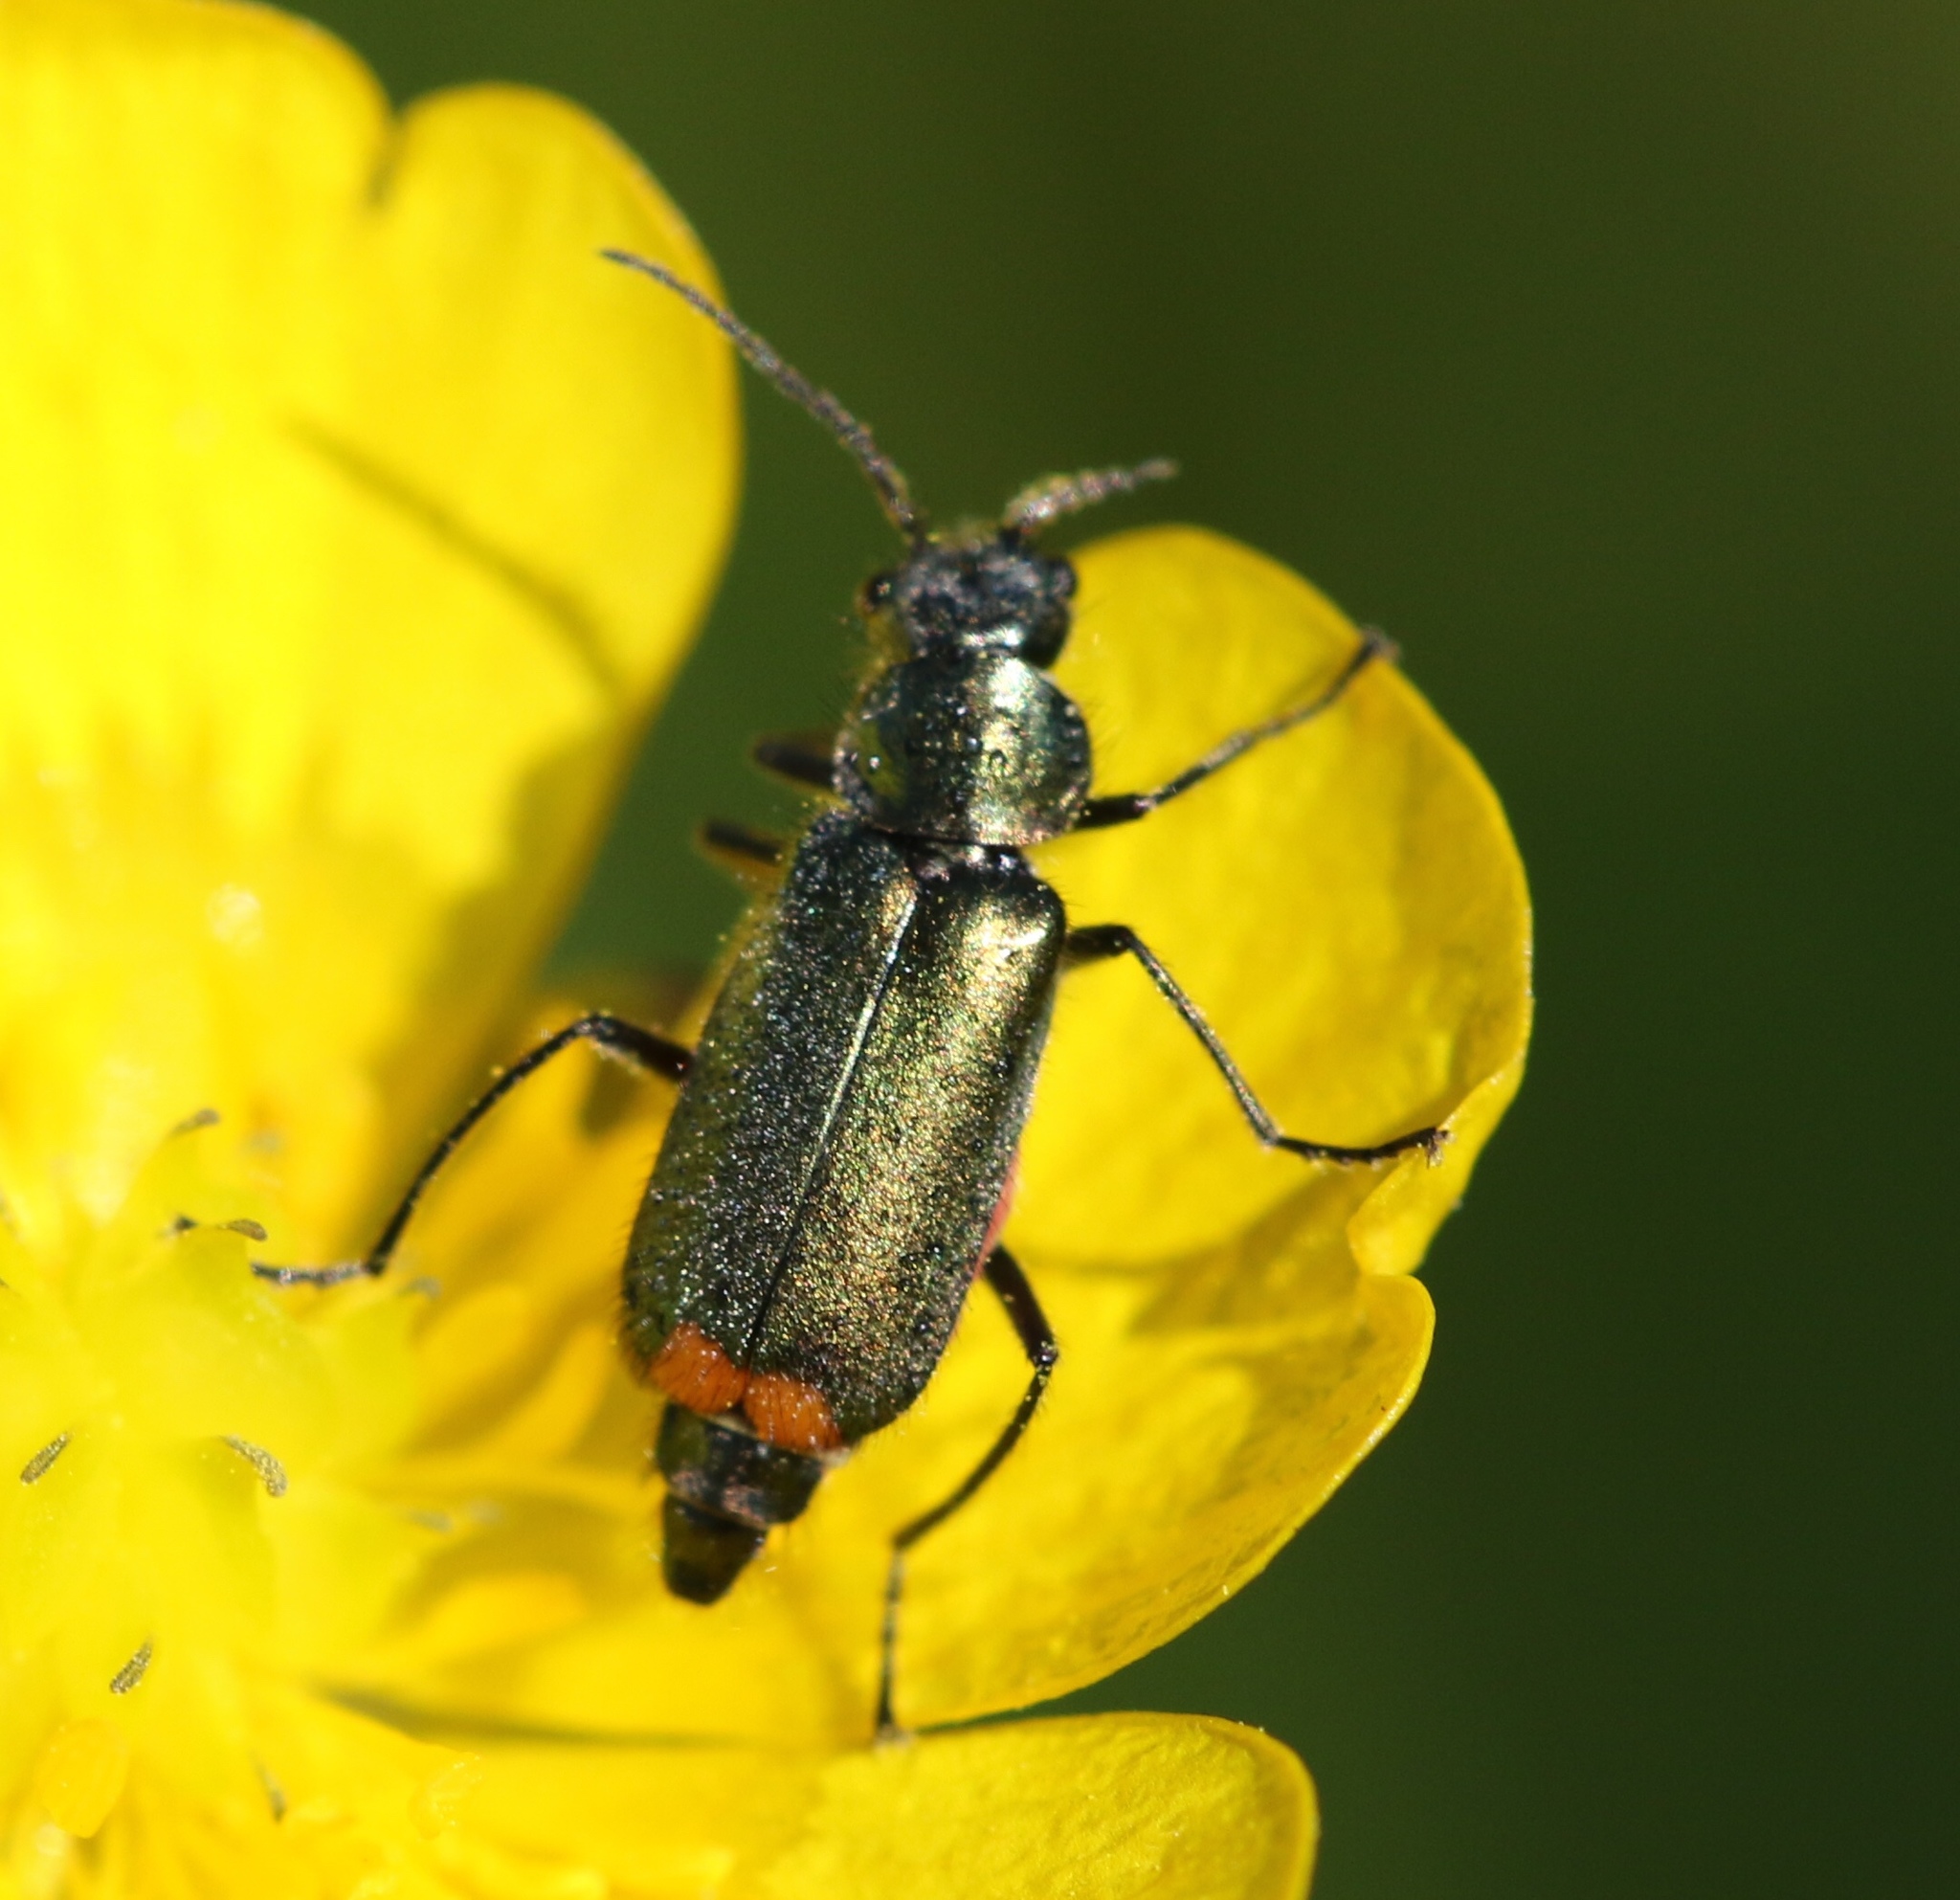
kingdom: Animalia
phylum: Arthropoda
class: Insecta
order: Coleoptera
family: Melyridae
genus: Malachius
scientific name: Malachius bipustulatus
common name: Malachite beetle
